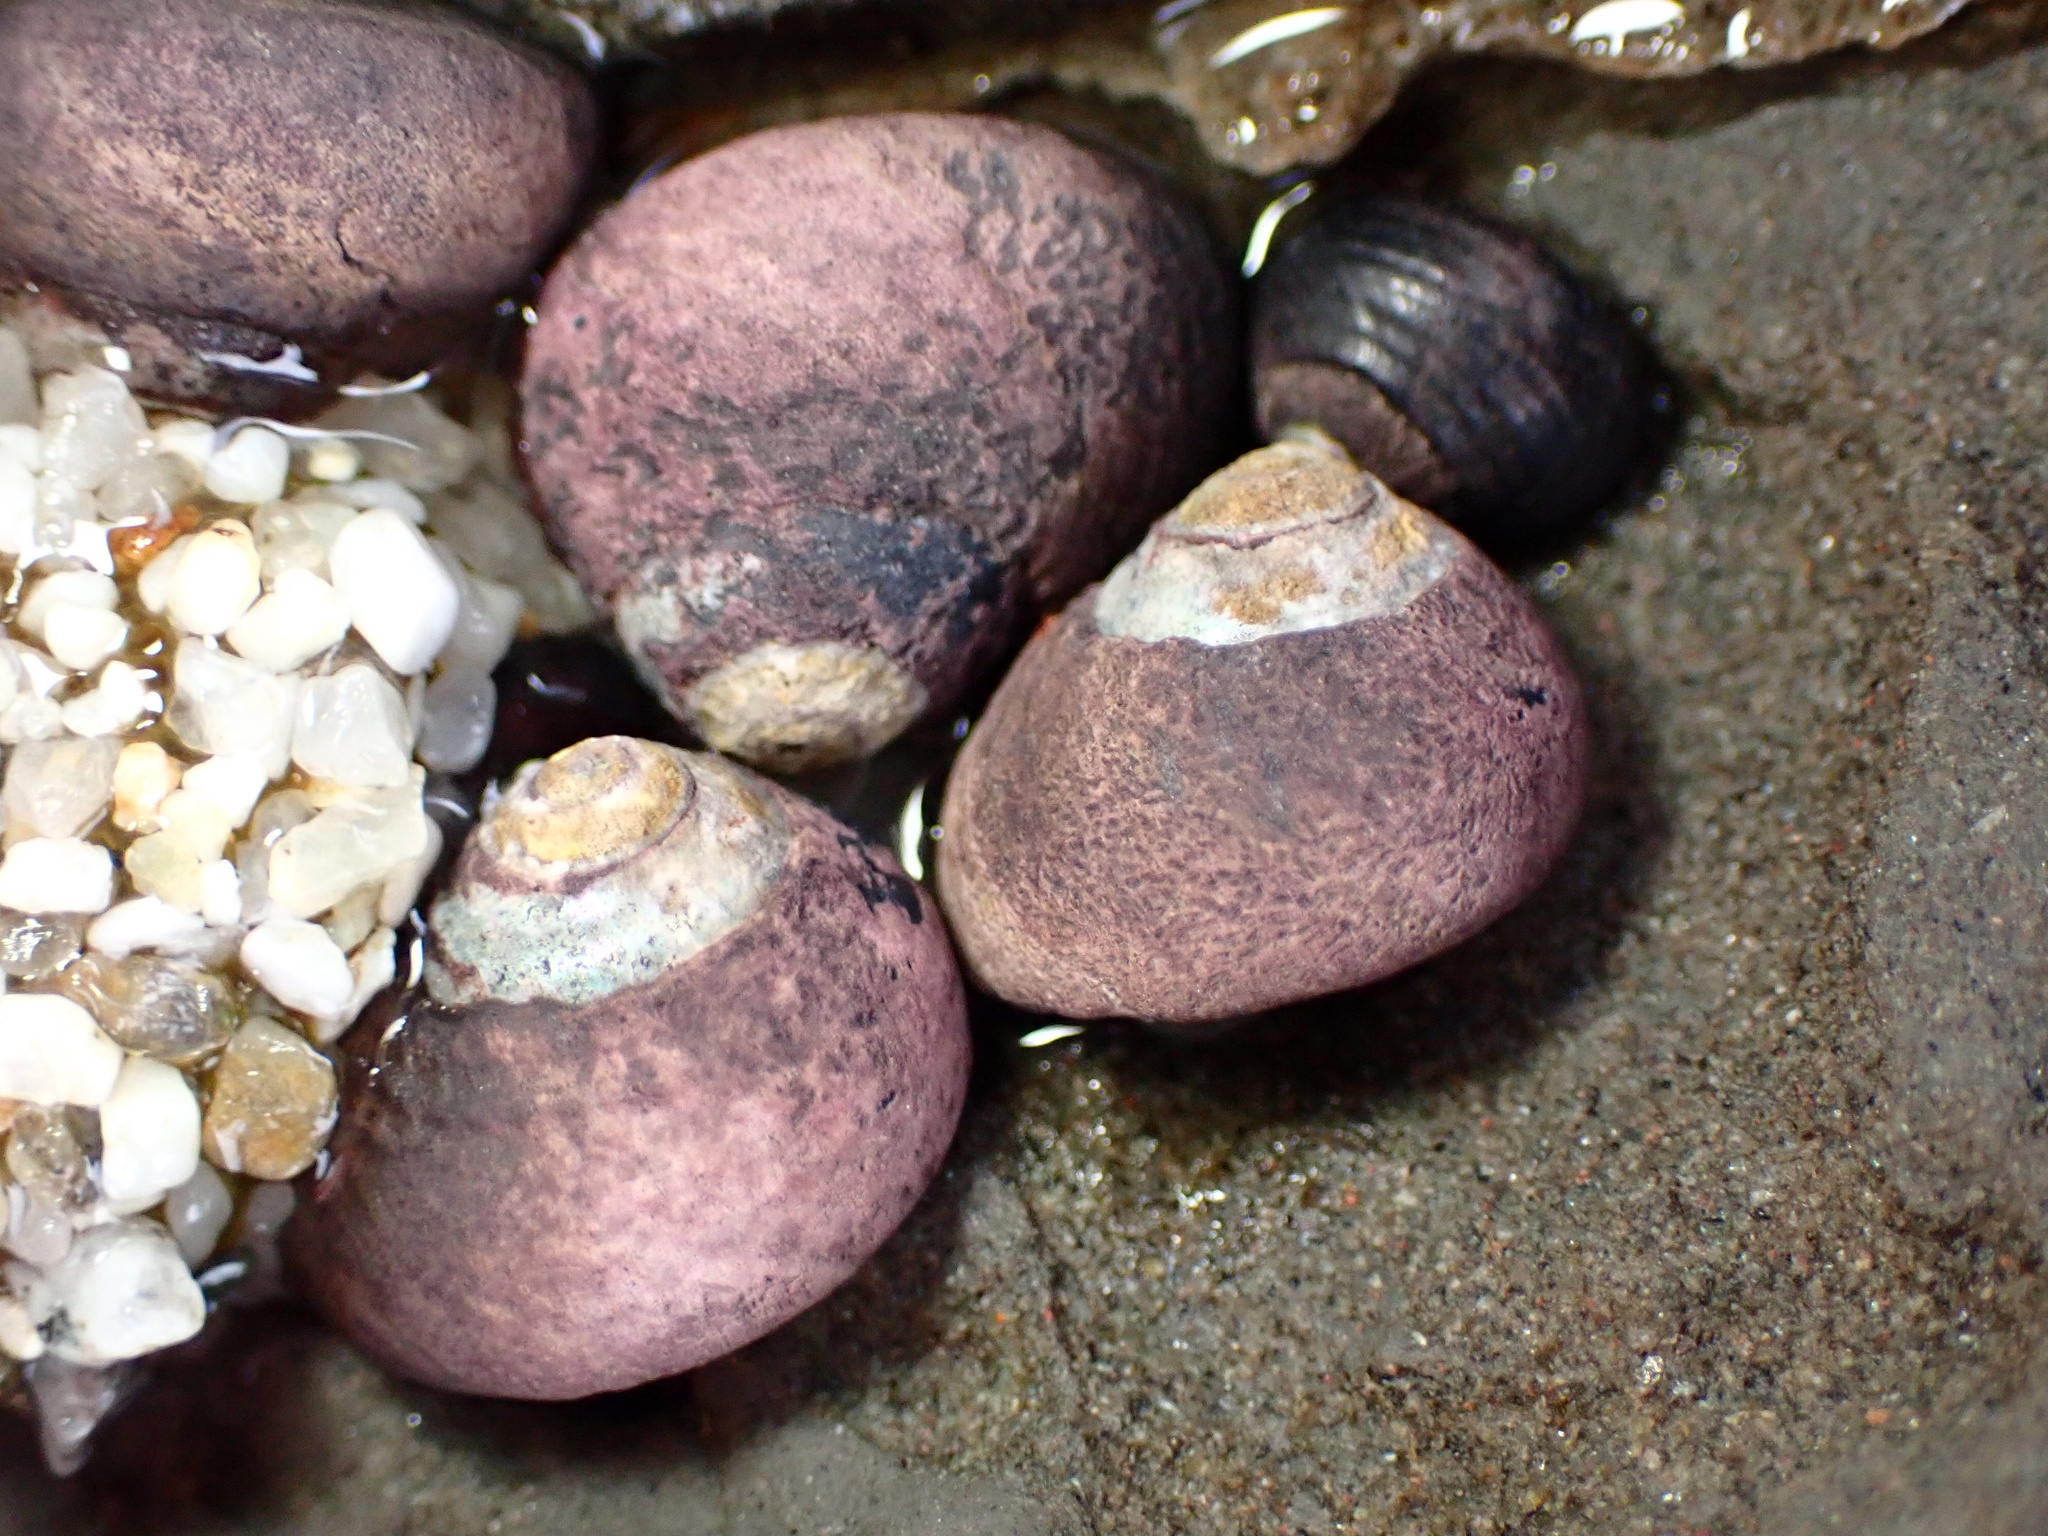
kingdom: Animalia
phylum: Mollusca
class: Gastropoda
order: Trochida
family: Tegulidae
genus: Tegula
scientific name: Tegula funebralis
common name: Black tegula
